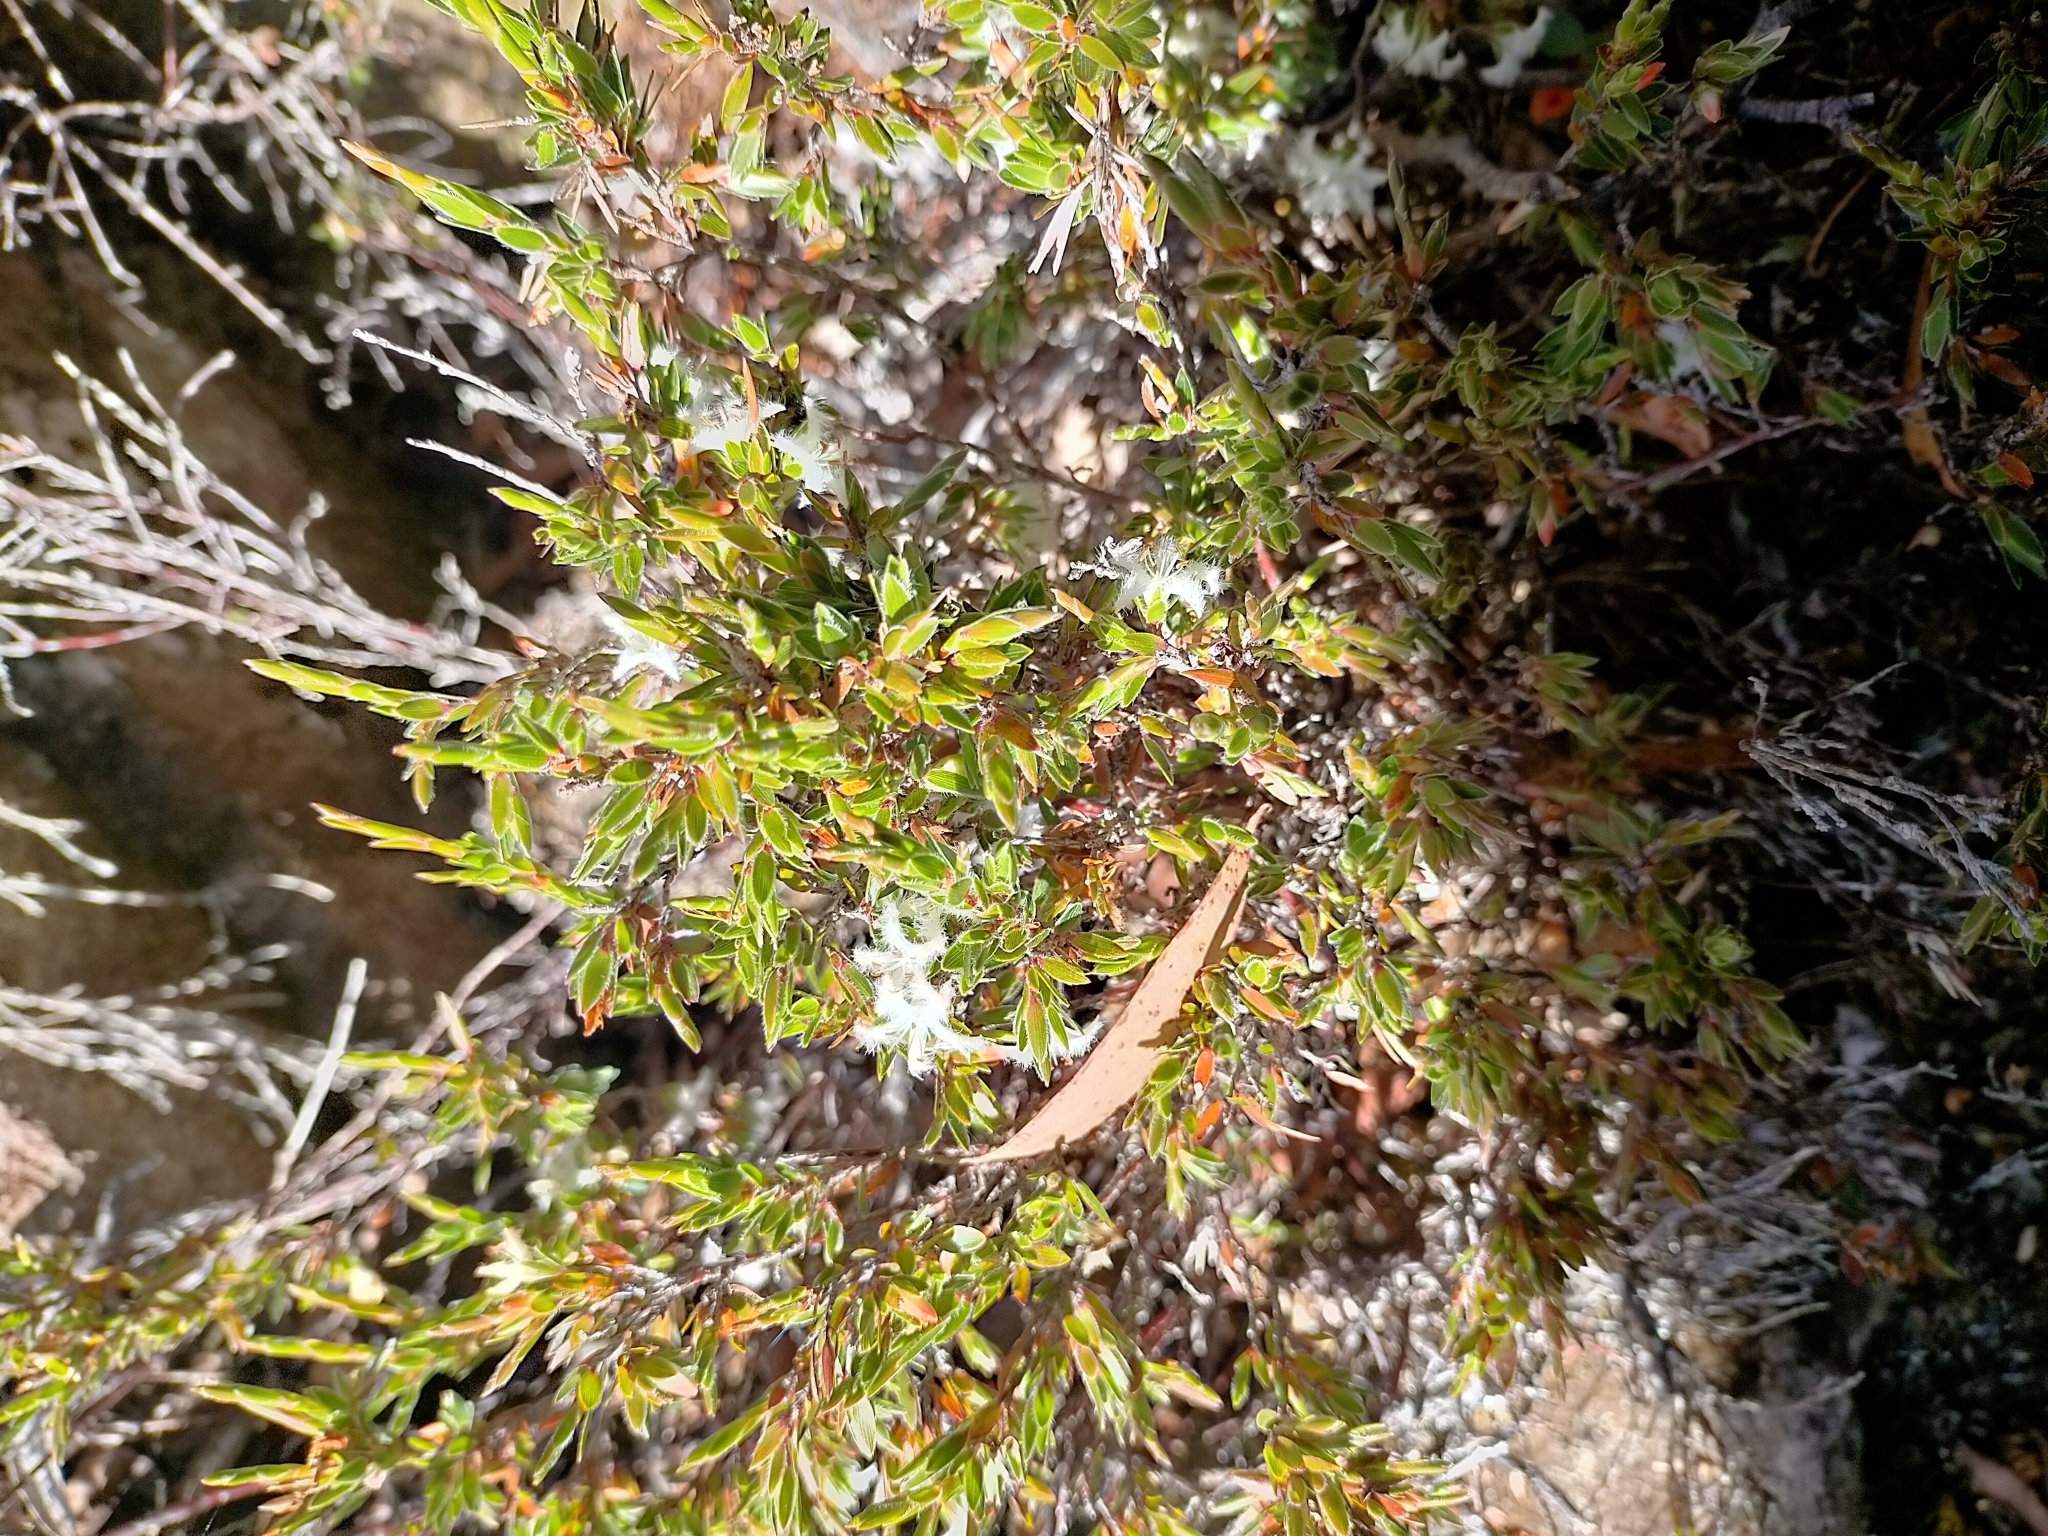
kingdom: Plantae
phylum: Tracheophyta
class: Magnoliopsida
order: Ericales
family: Ericaceae
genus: Pentachondra
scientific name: Pentachondra involucrata
